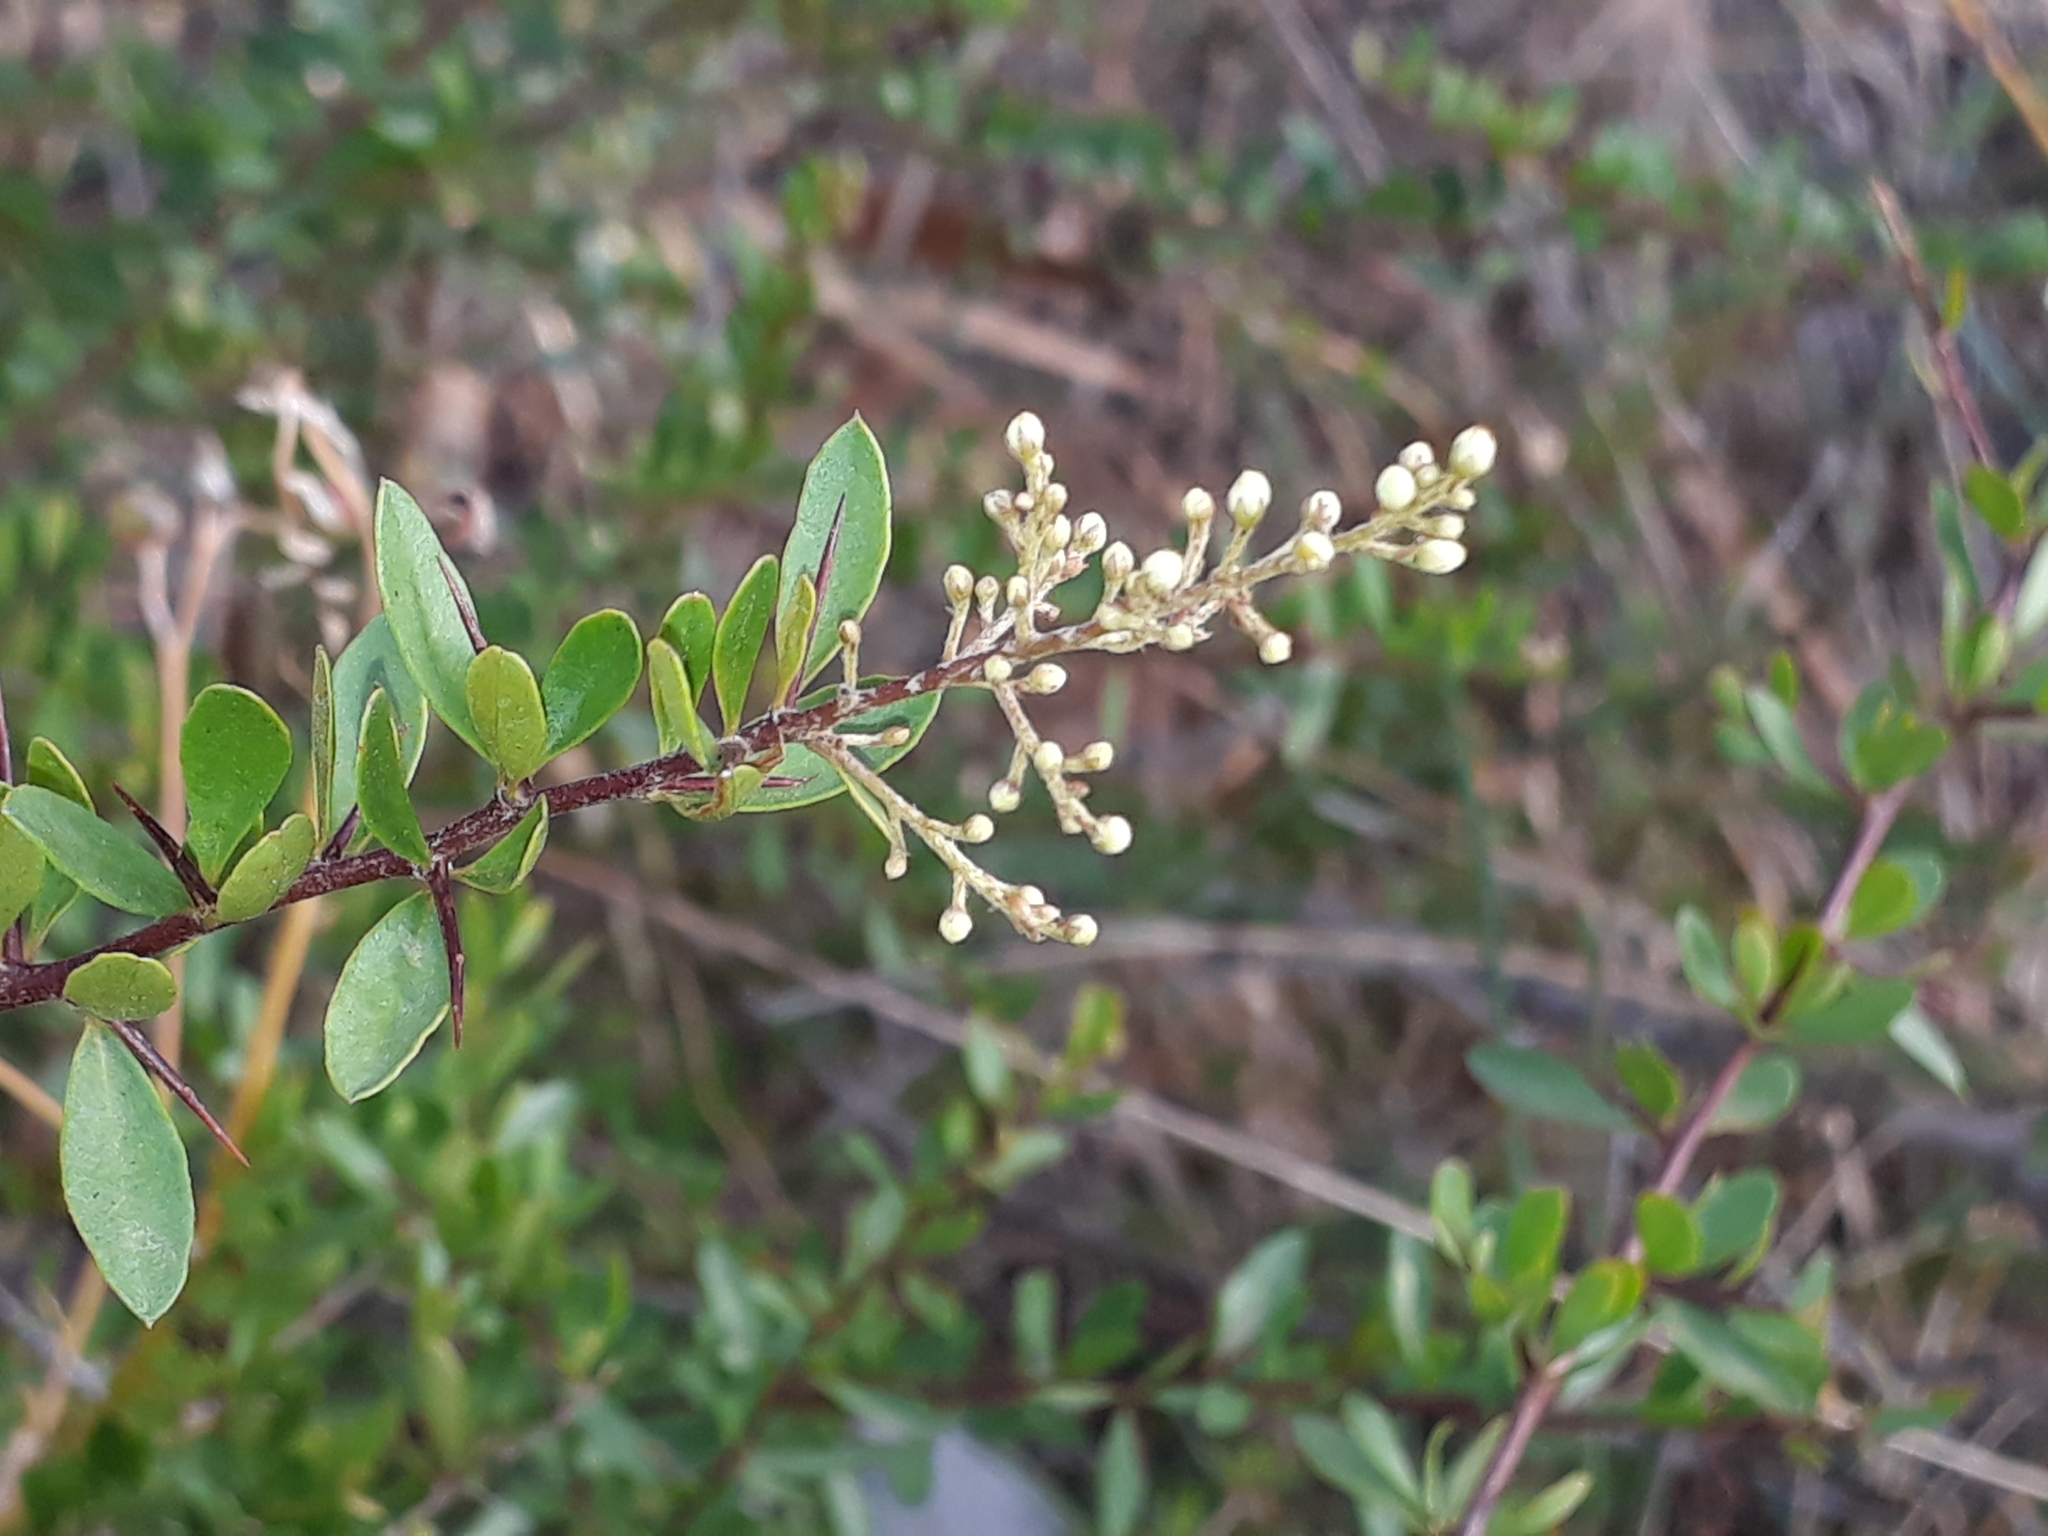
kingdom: Plantae
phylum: Tracheophyta
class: Magnoliopsida
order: Apiales
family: Pittosporaceae
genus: Bursaria
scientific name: Bursaria spinosa
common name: Australian blackthorn
